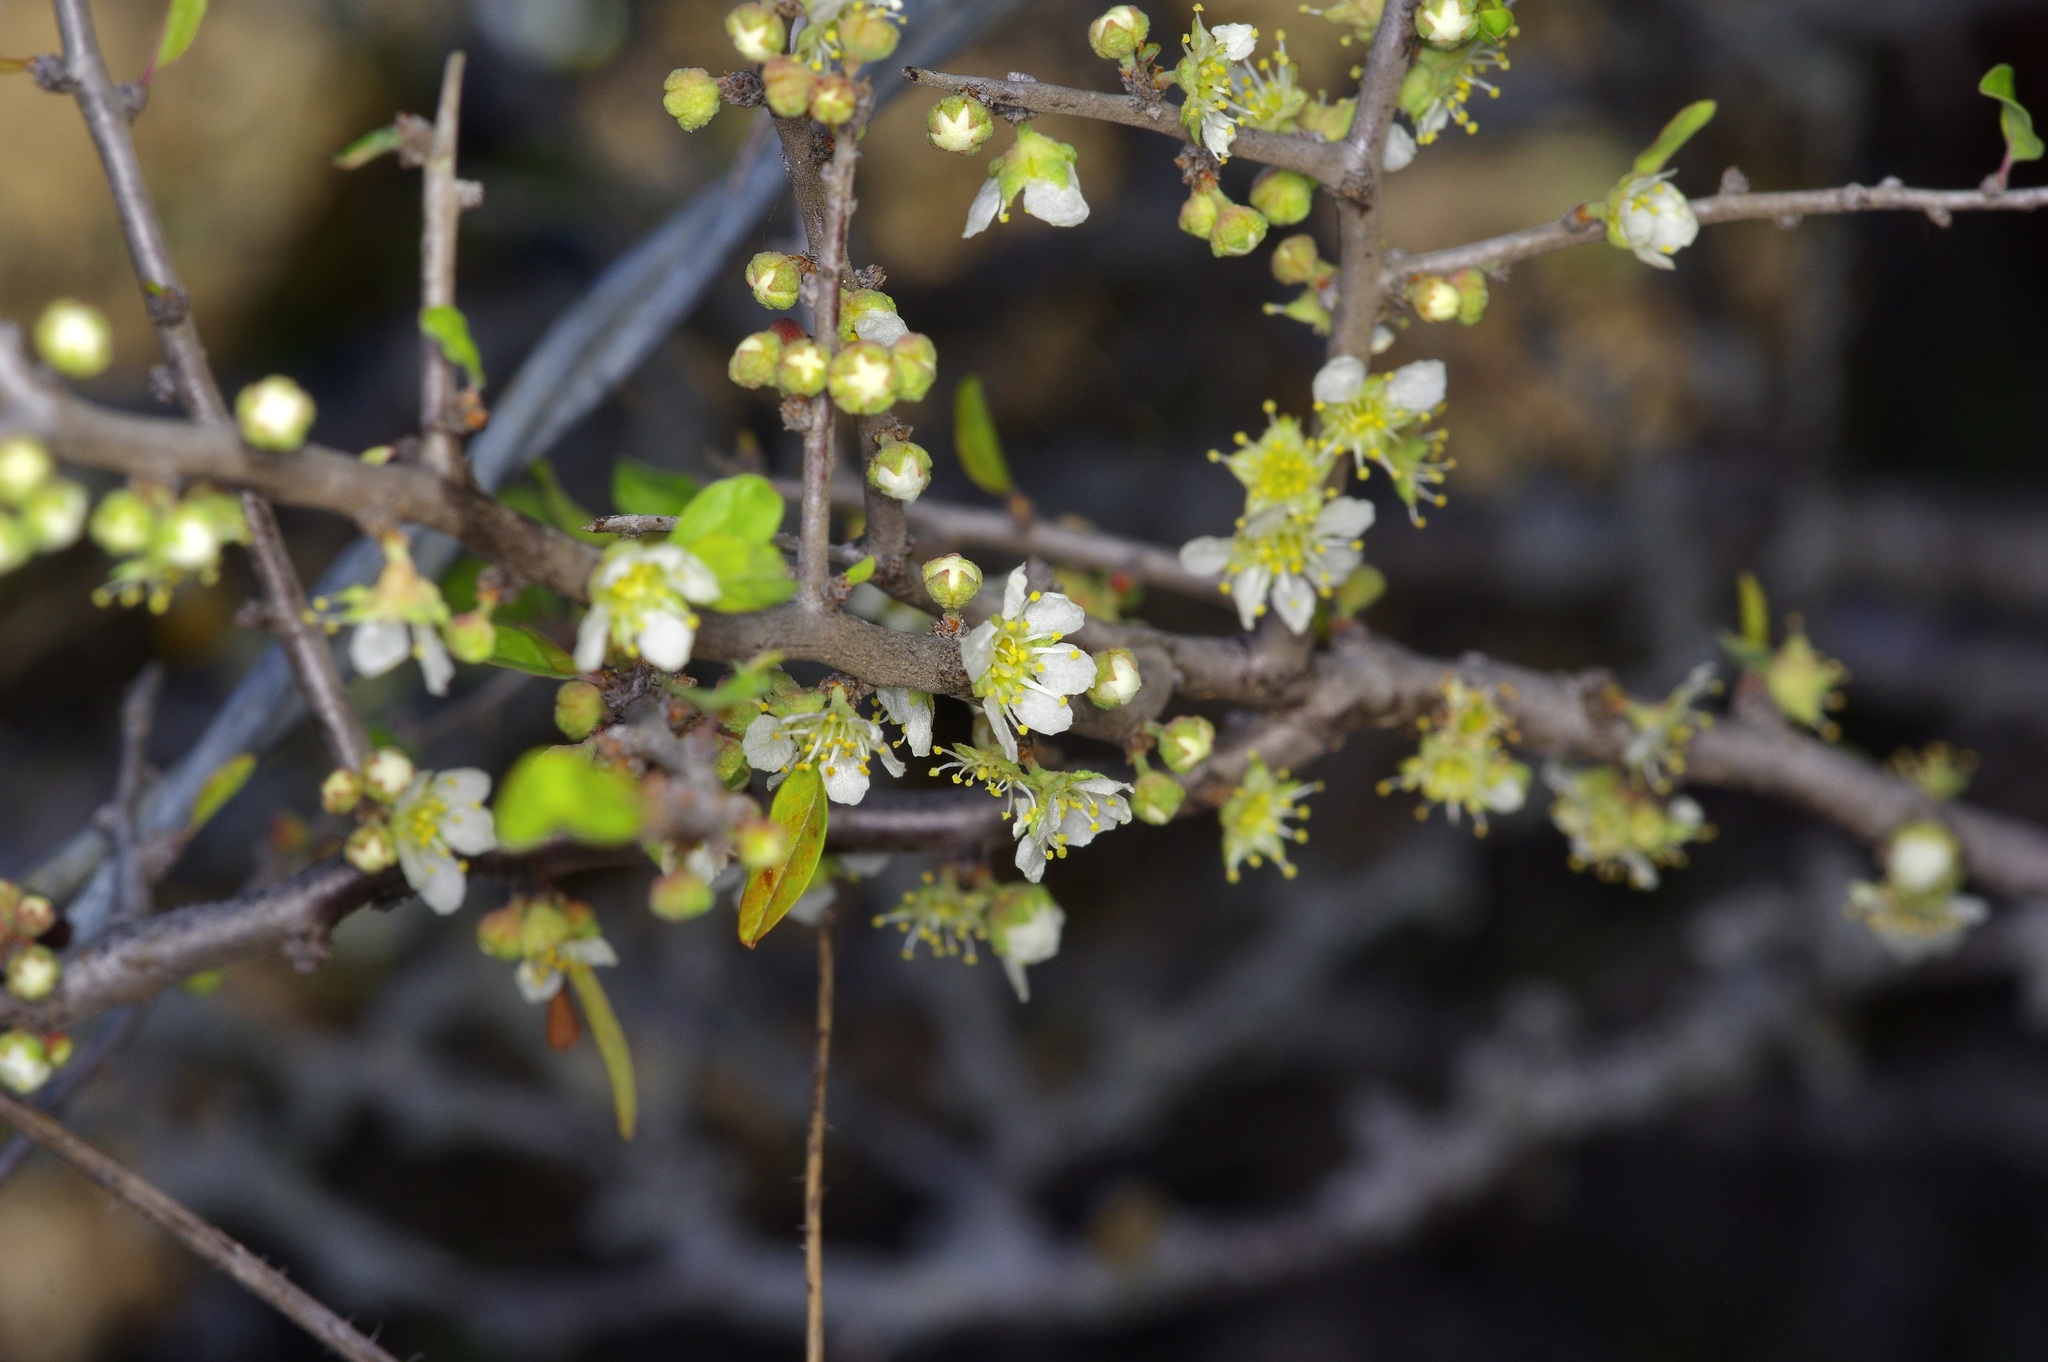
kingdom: Plantae
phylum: Tracheophyta
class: Magnoliopsida
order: Rosales
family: Rosaceae
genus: Prunus
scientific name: Prunus minutiflora
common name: Texas almond
